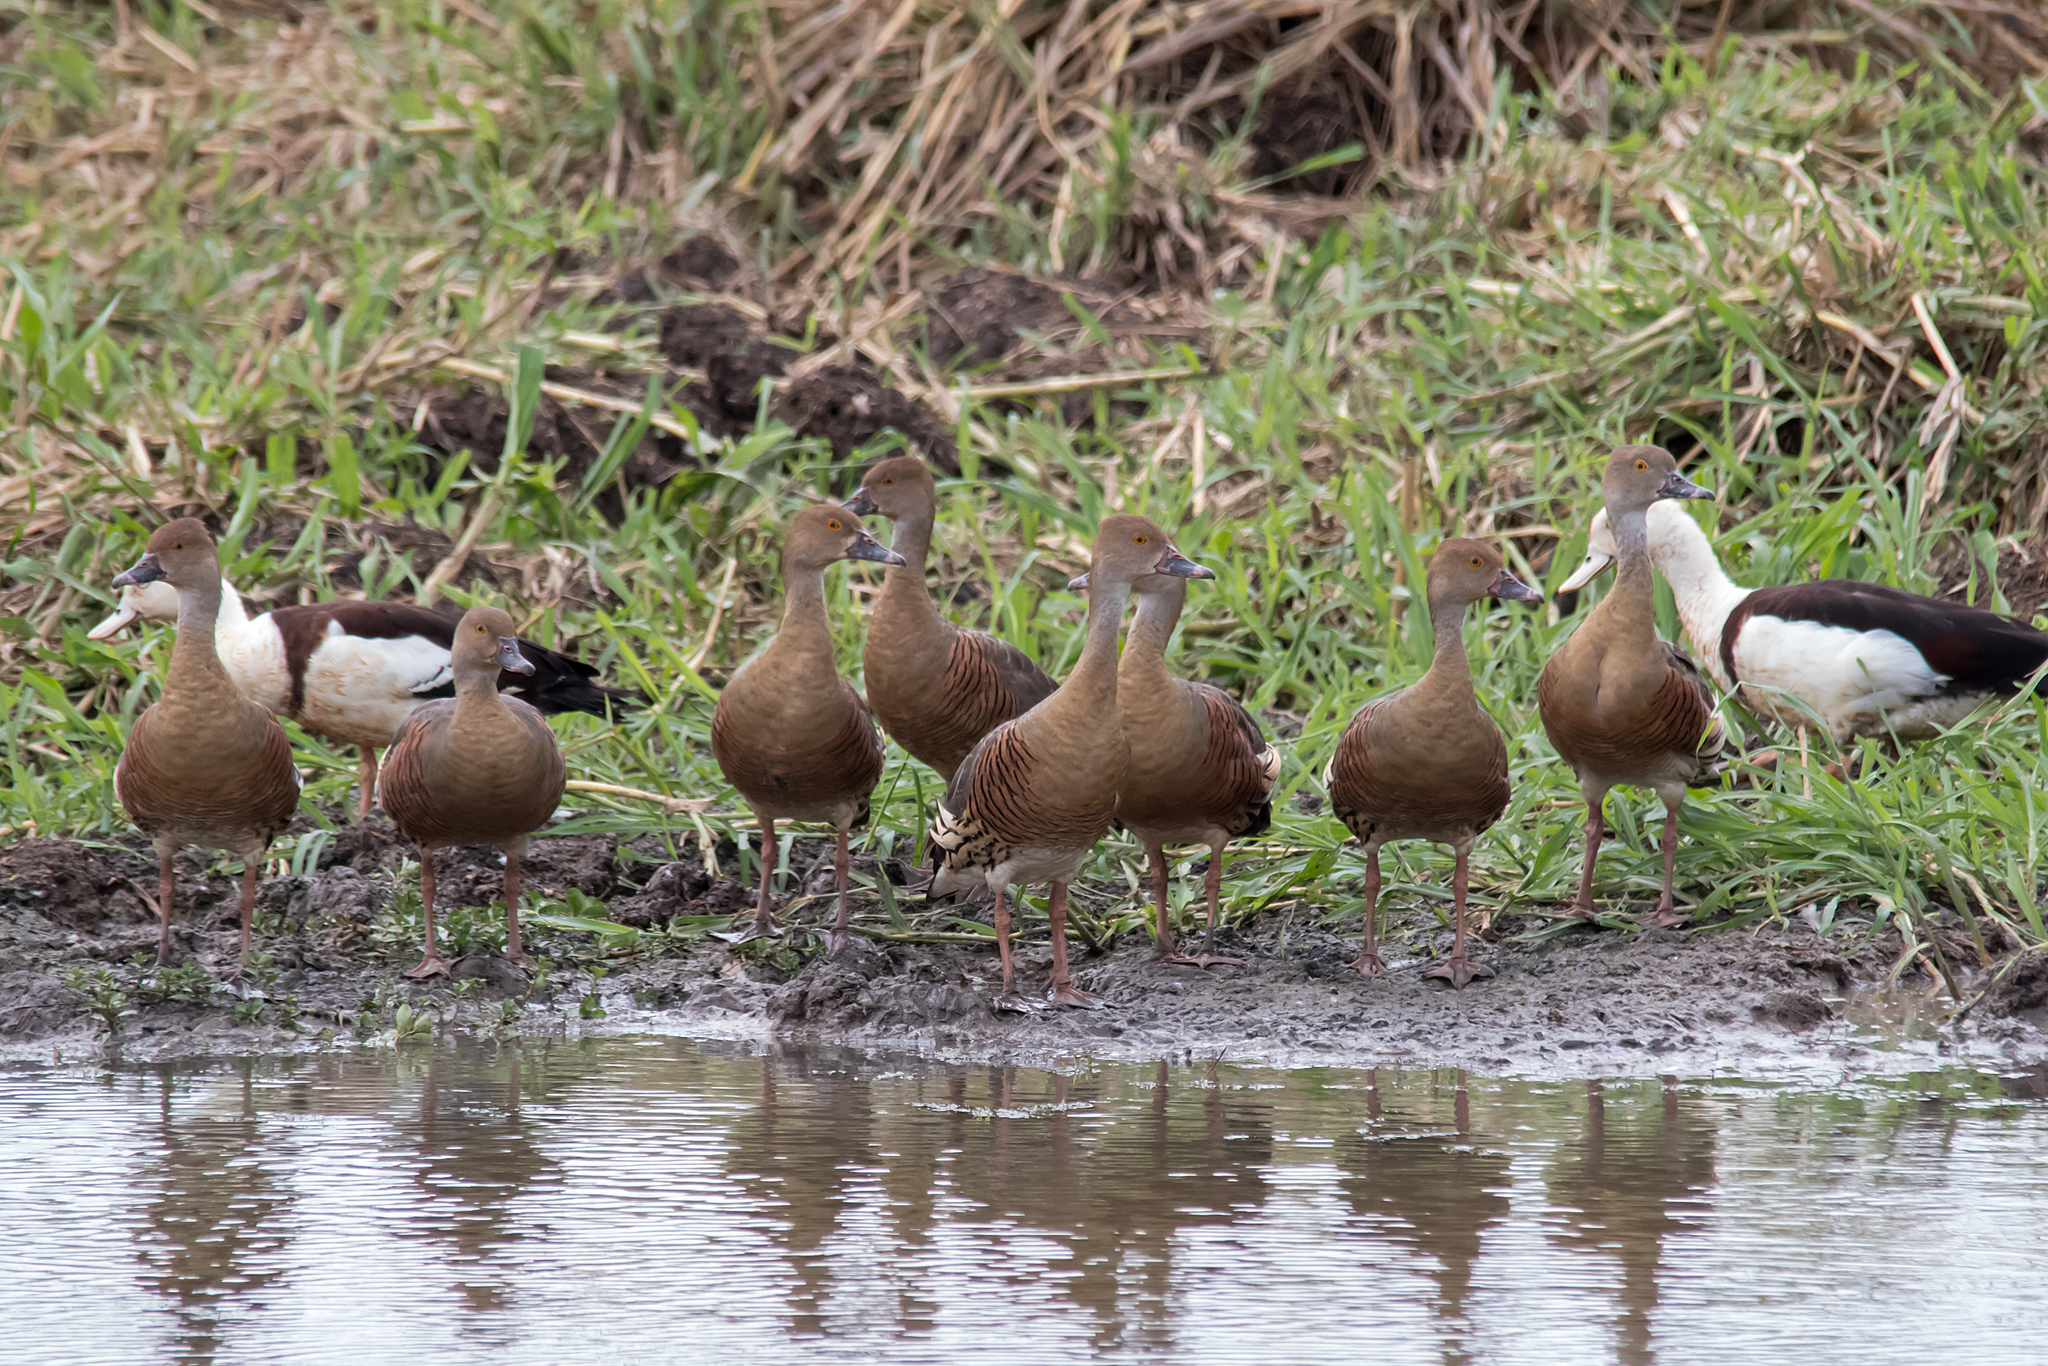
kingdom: Animalia
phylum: Chordata
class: Aves
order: Anseriformes
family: Anatidae
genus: Dendrocygna
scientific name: Dendrocygna eytoni
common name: Plumed whistling-duck
